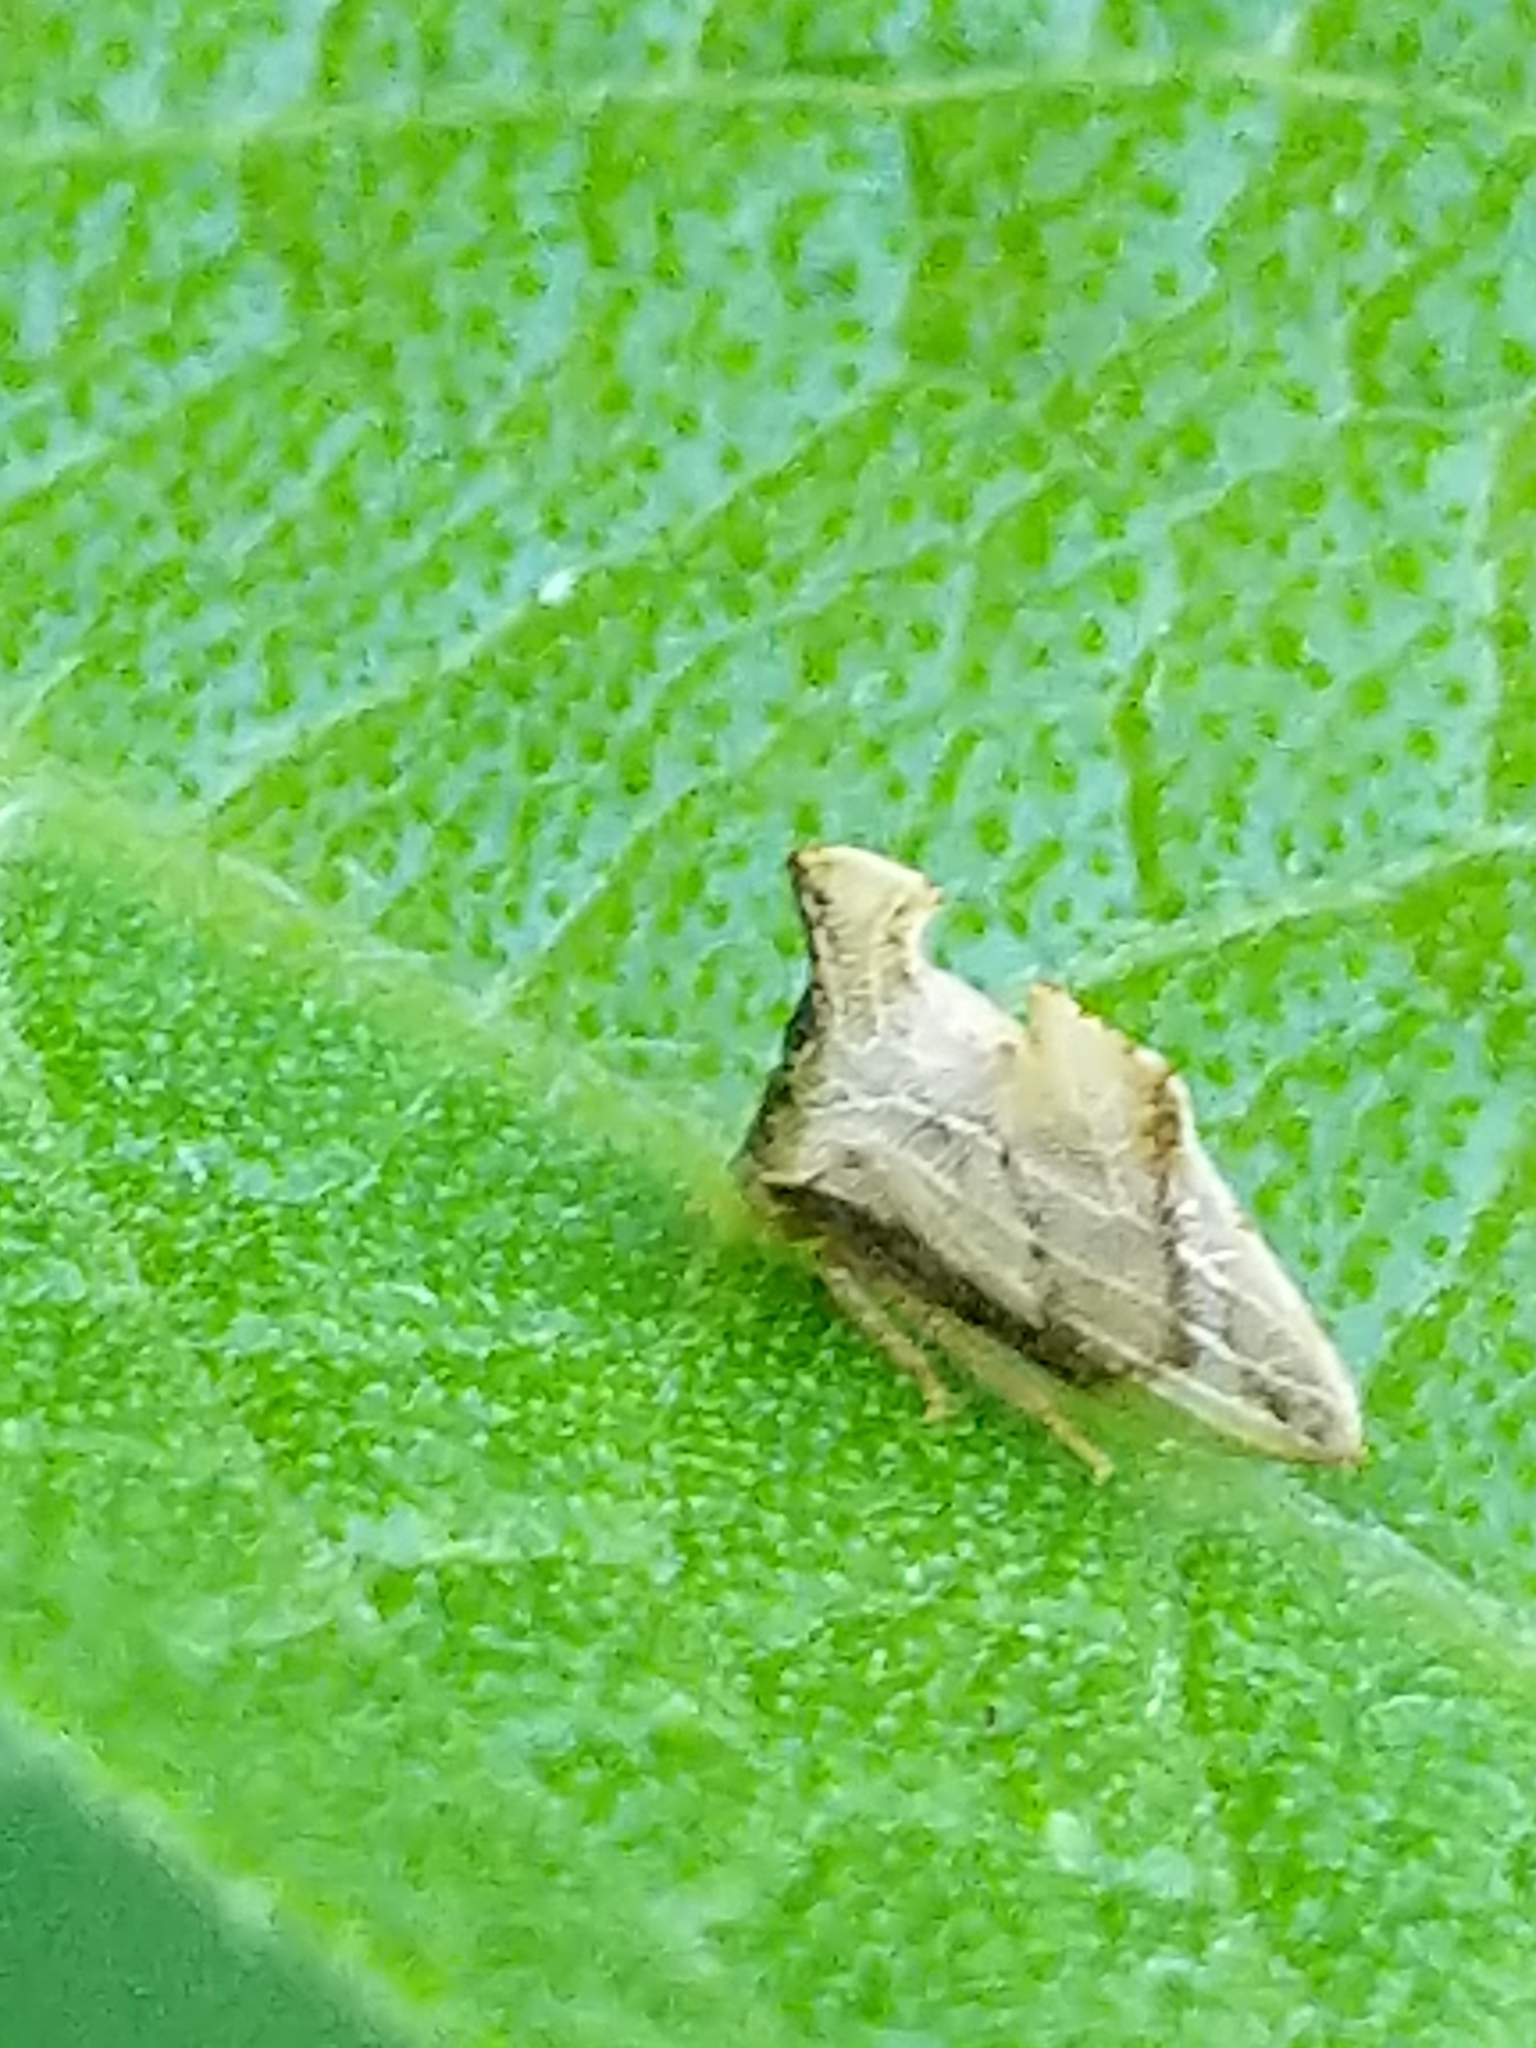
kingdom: Animalia
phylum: Arthropoda
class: Insecta
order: Hemiptera
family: Membracidae
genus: Entylia
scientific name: Entylia carinata
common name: Keeled treehopper
